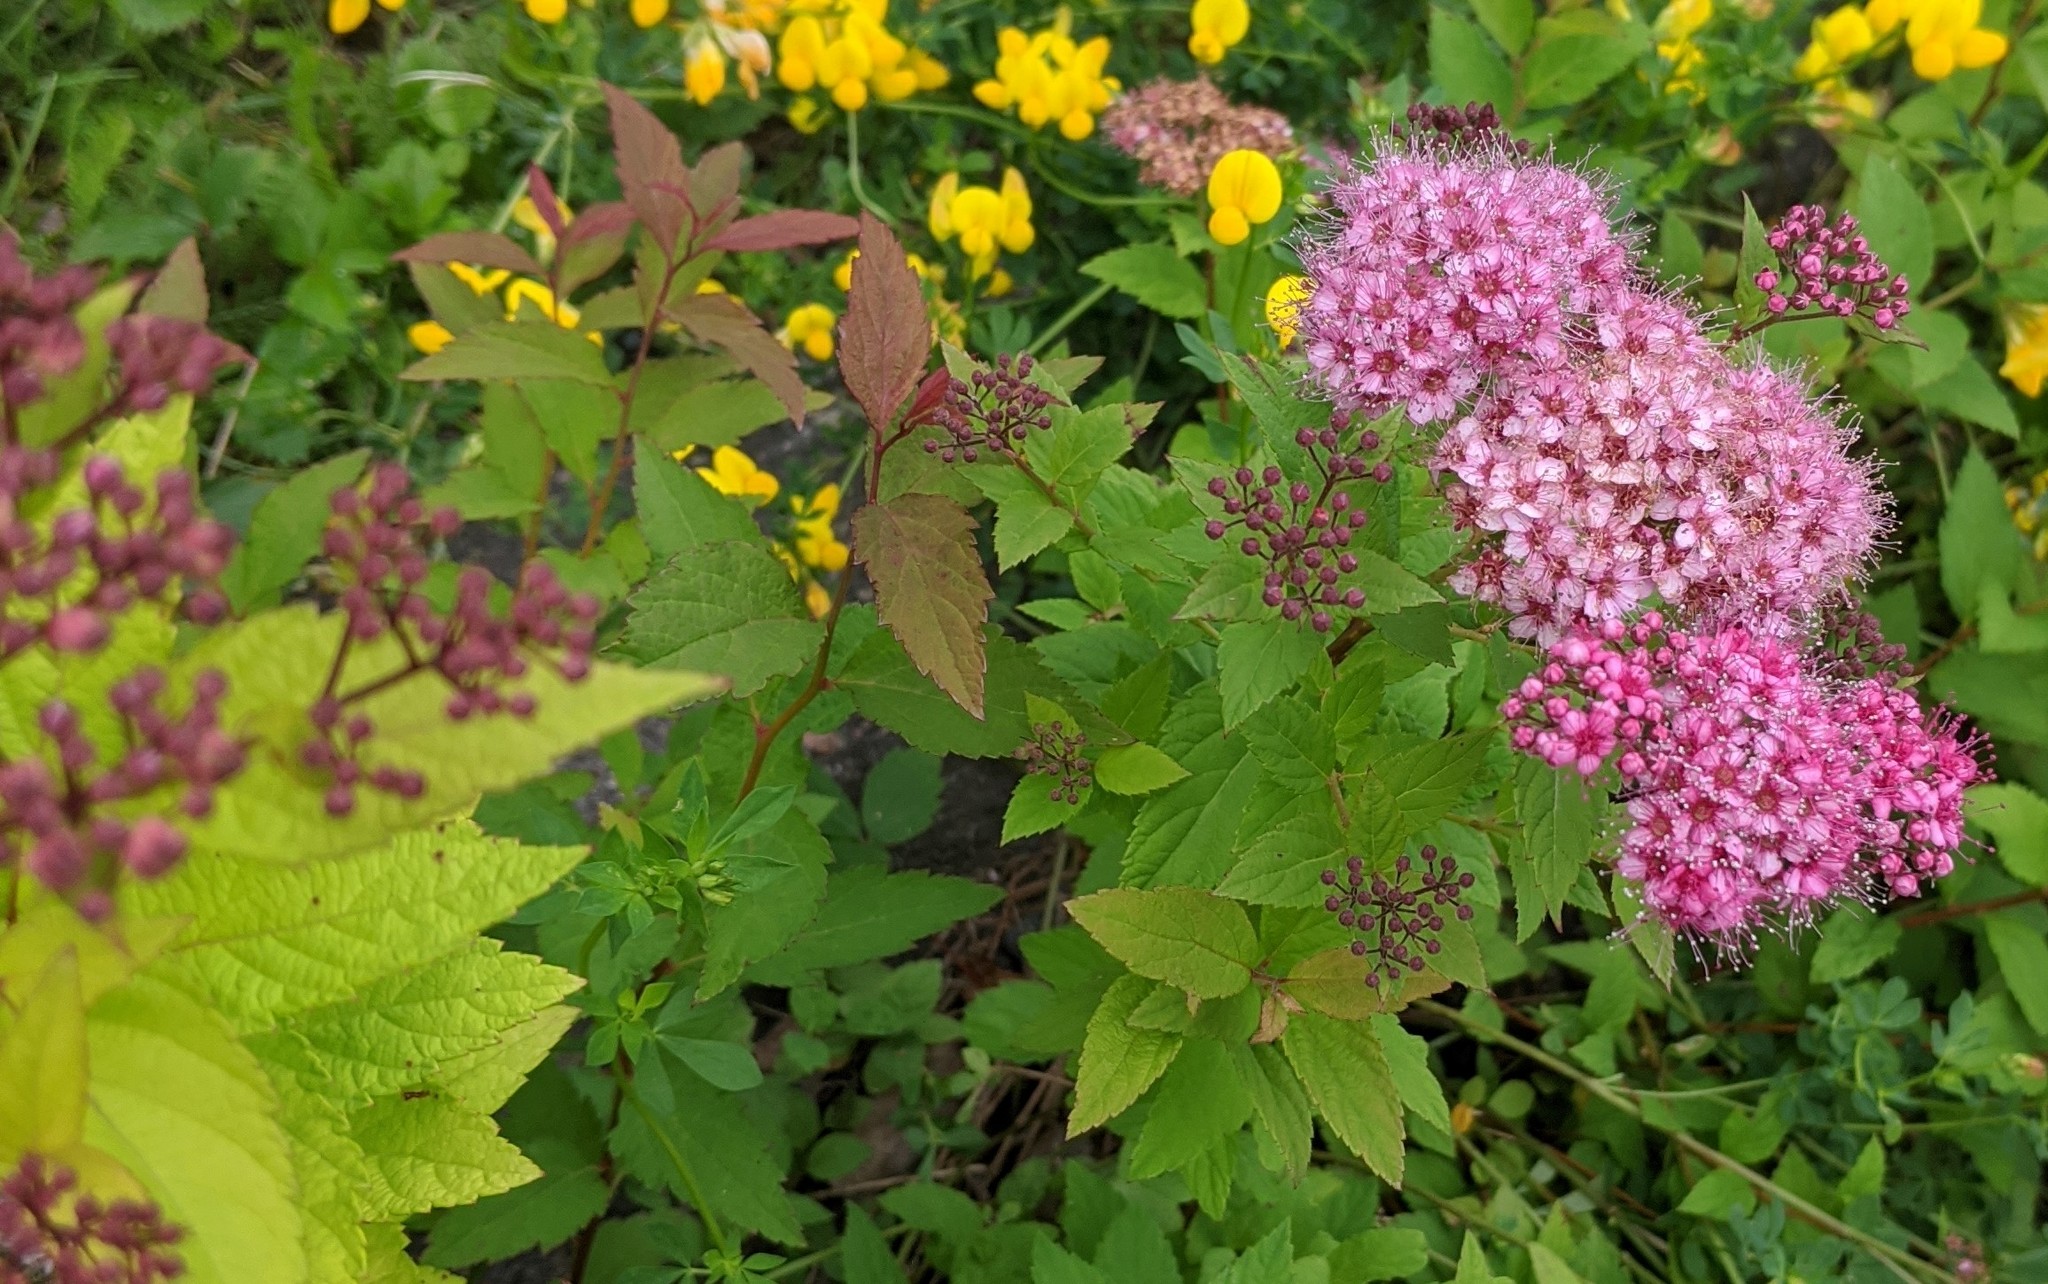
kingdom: Plantae
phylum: Tracheophyta
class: Magnoliopsida
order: Rosales
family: Rosaceae
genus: Spiraea
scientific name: Spiraea japonica
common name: Japanese spiraea
